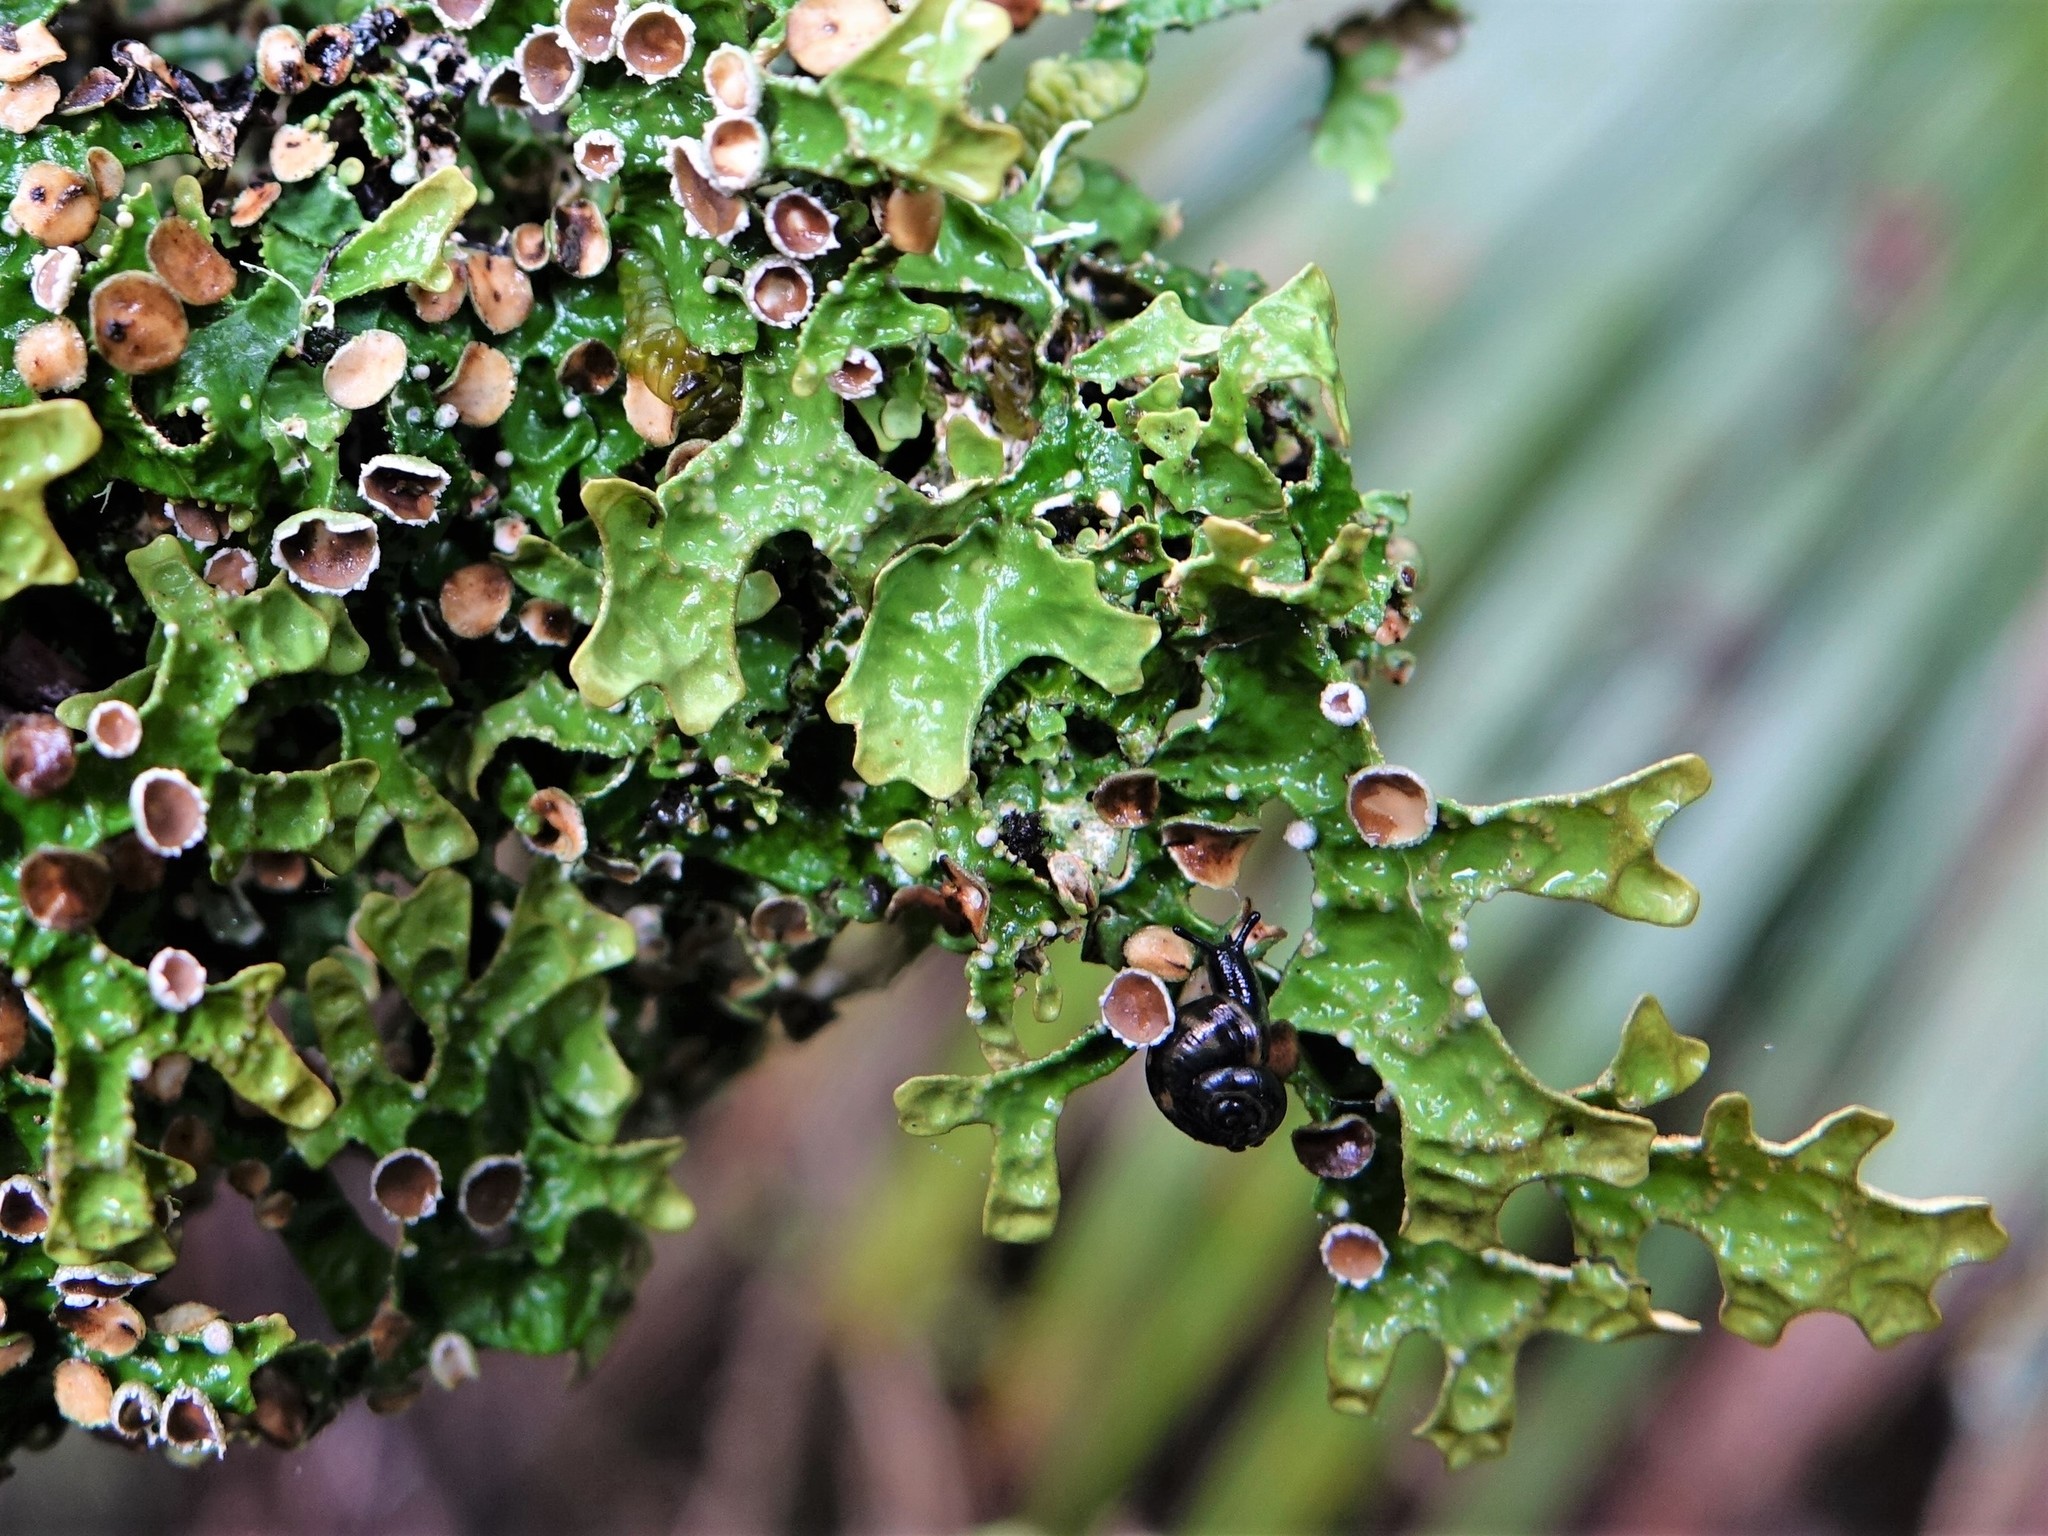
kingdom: Animalia
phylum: Mollusca
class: Gastropoda
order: Stylommatophora
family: Charopidae
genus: Serpho
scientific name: Serpho
